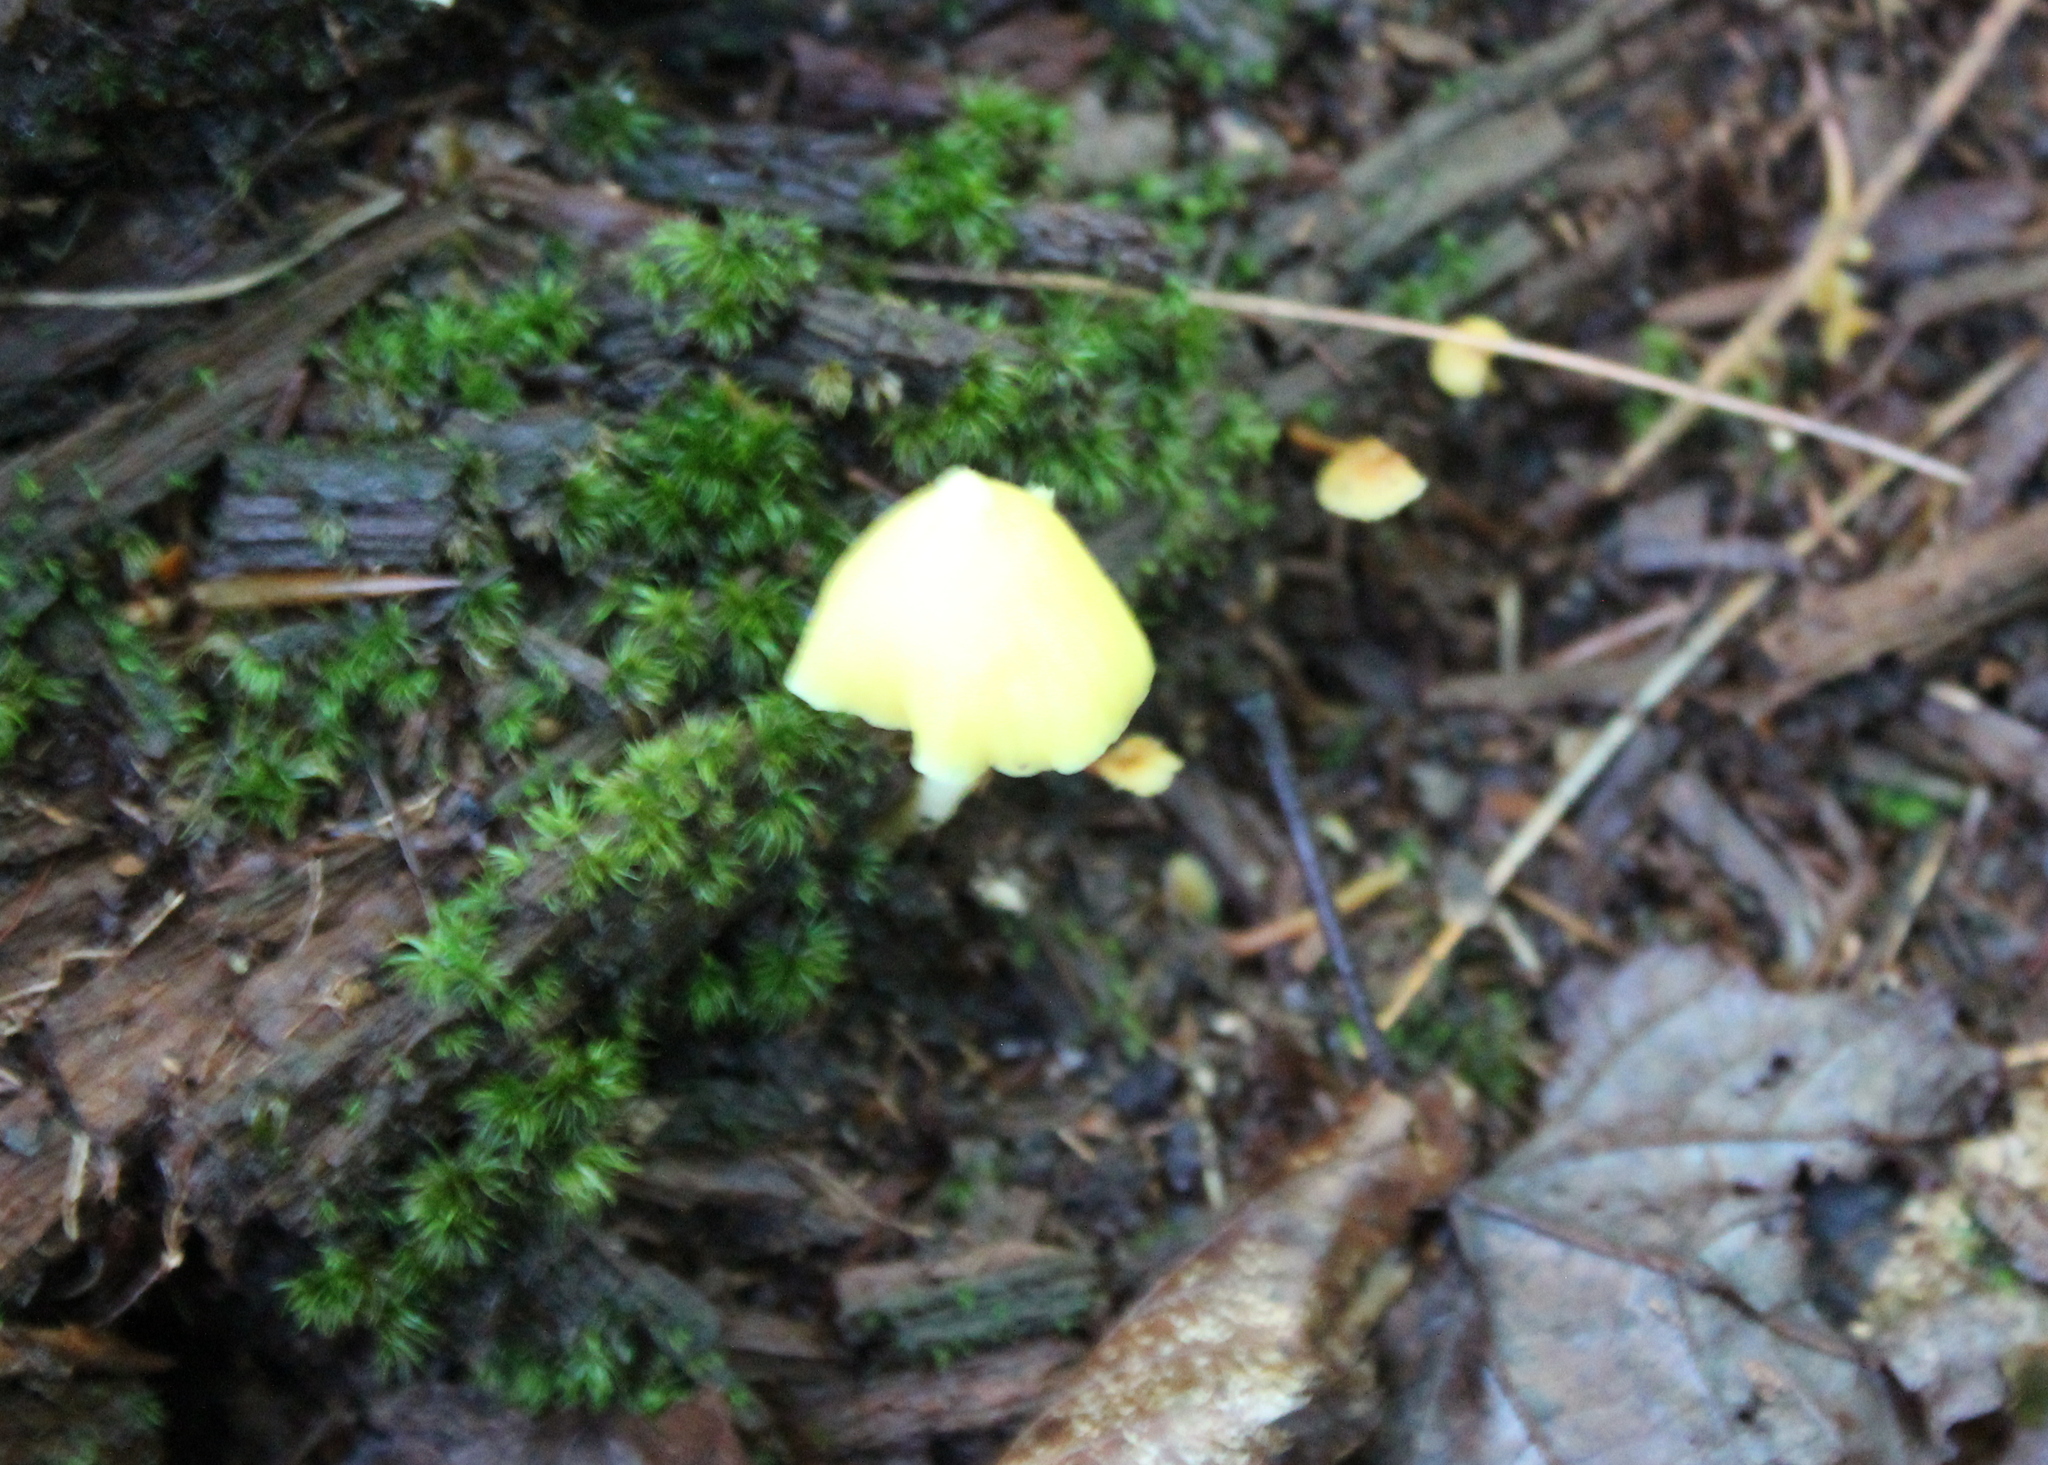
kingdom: Fungi
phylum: Basidiomycota
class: Agaricomycetes
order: Agaricales
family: Entolomataceae
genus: Entoloma
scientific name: Entoloma murrayi
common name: Yellow unicorn entoloma
